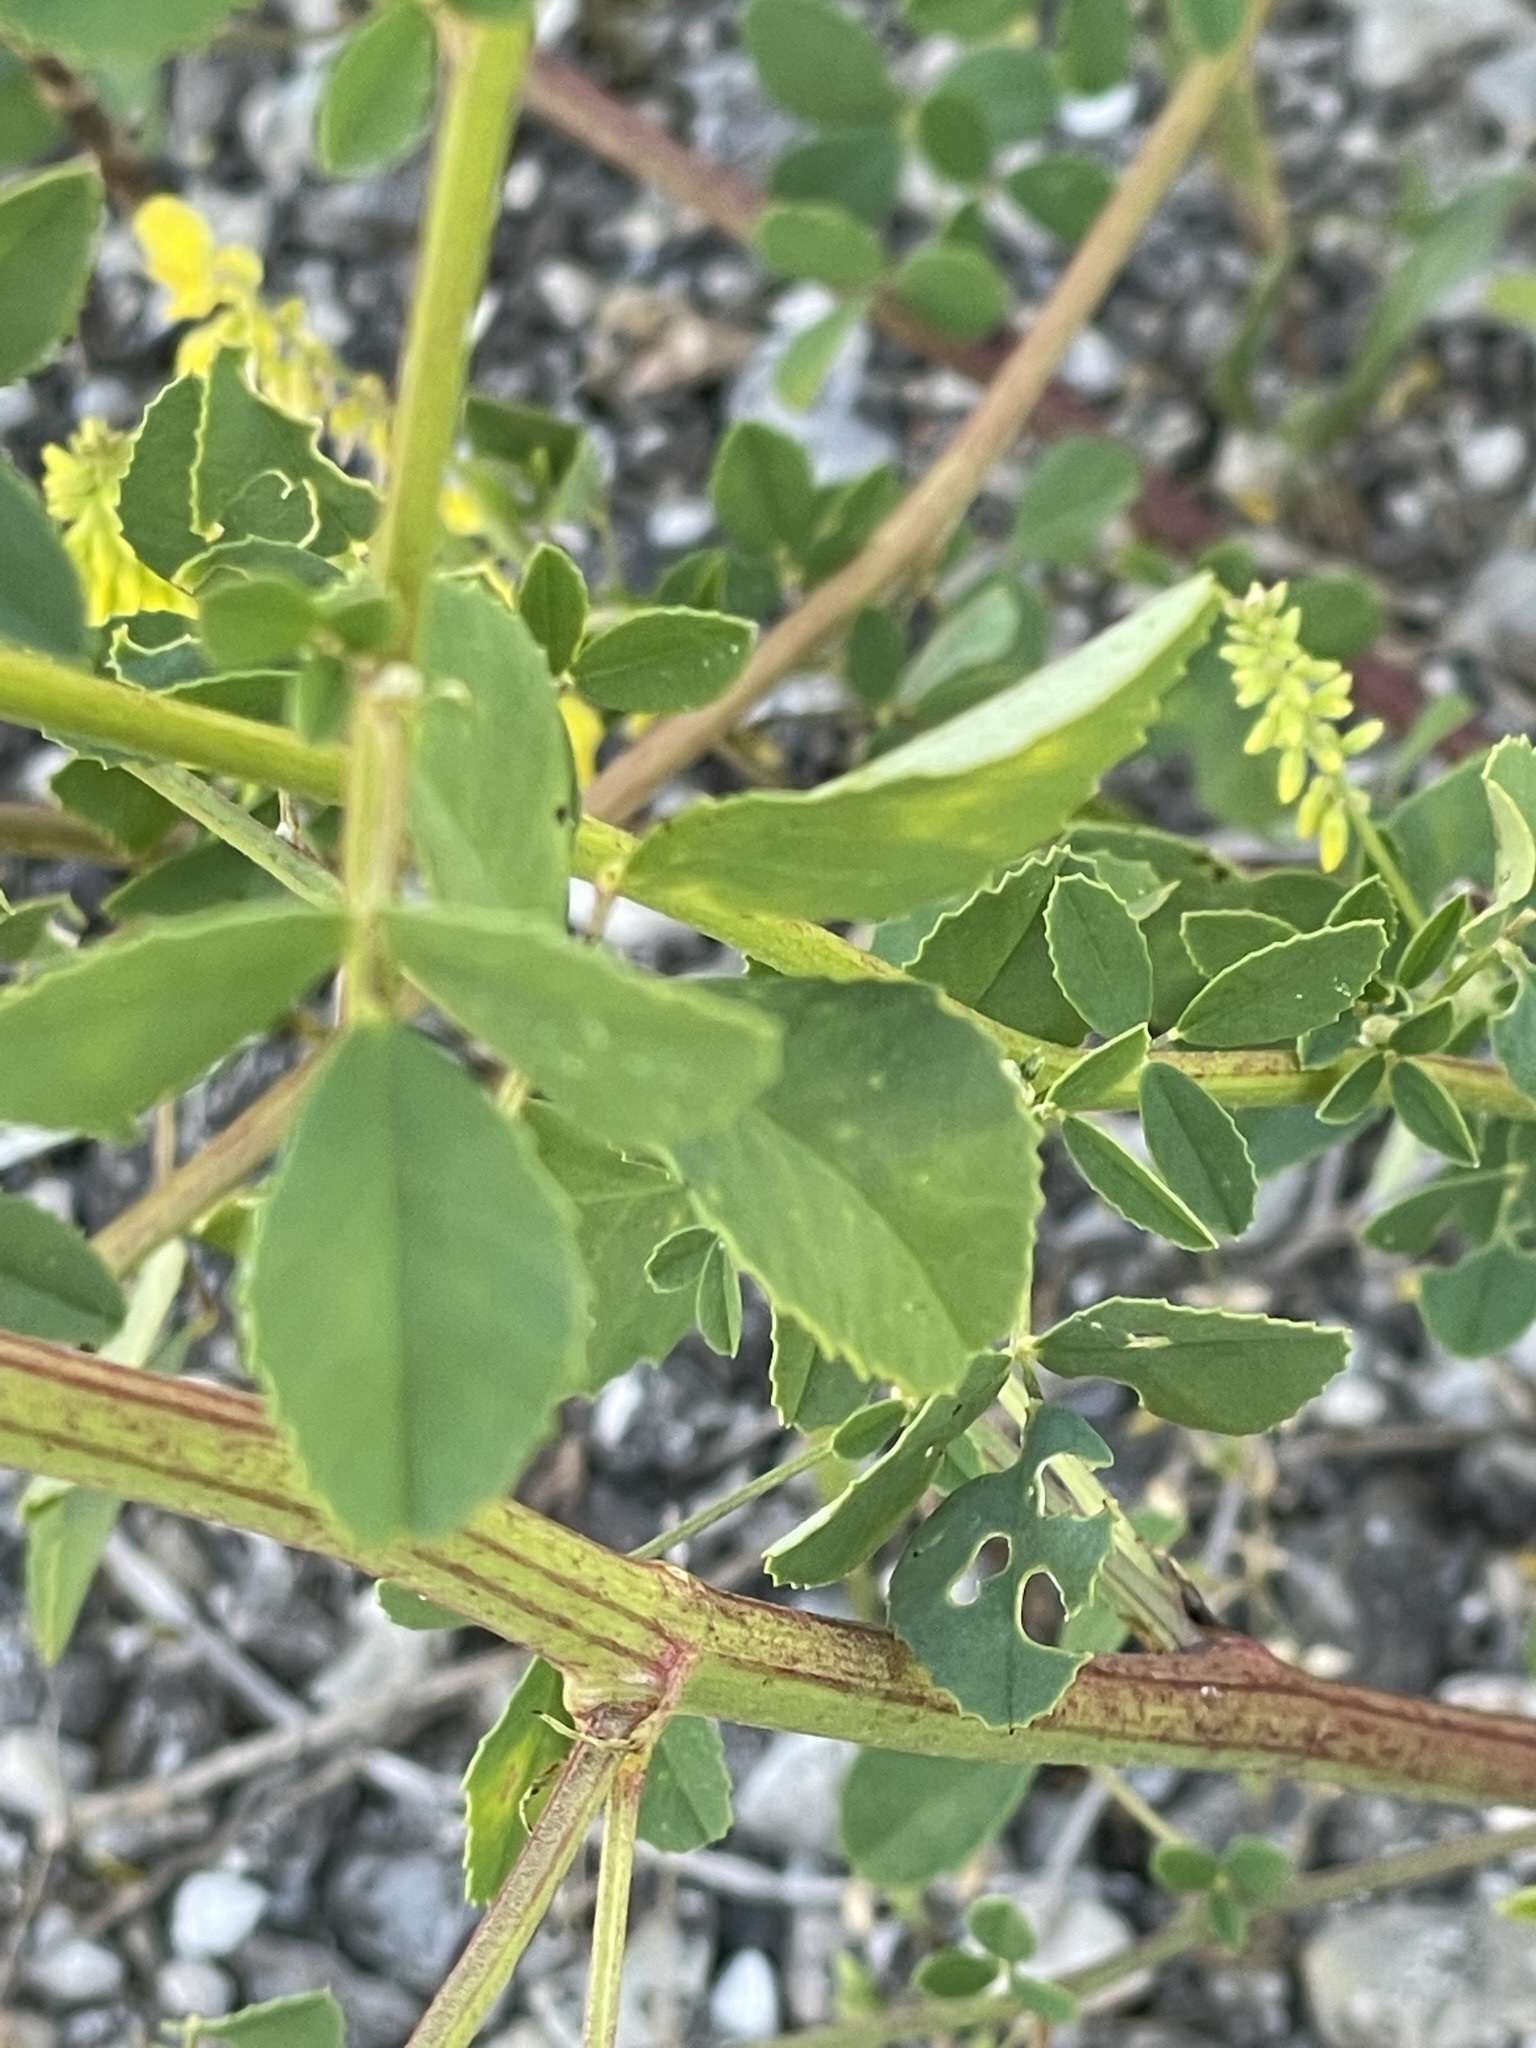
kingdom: Plantae
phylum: Tracheophyta
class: Magnoliopsida
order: Fabales
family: Fabaceae
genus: Melilotus
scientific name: Melilotus officinalis
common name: Sweetclover
